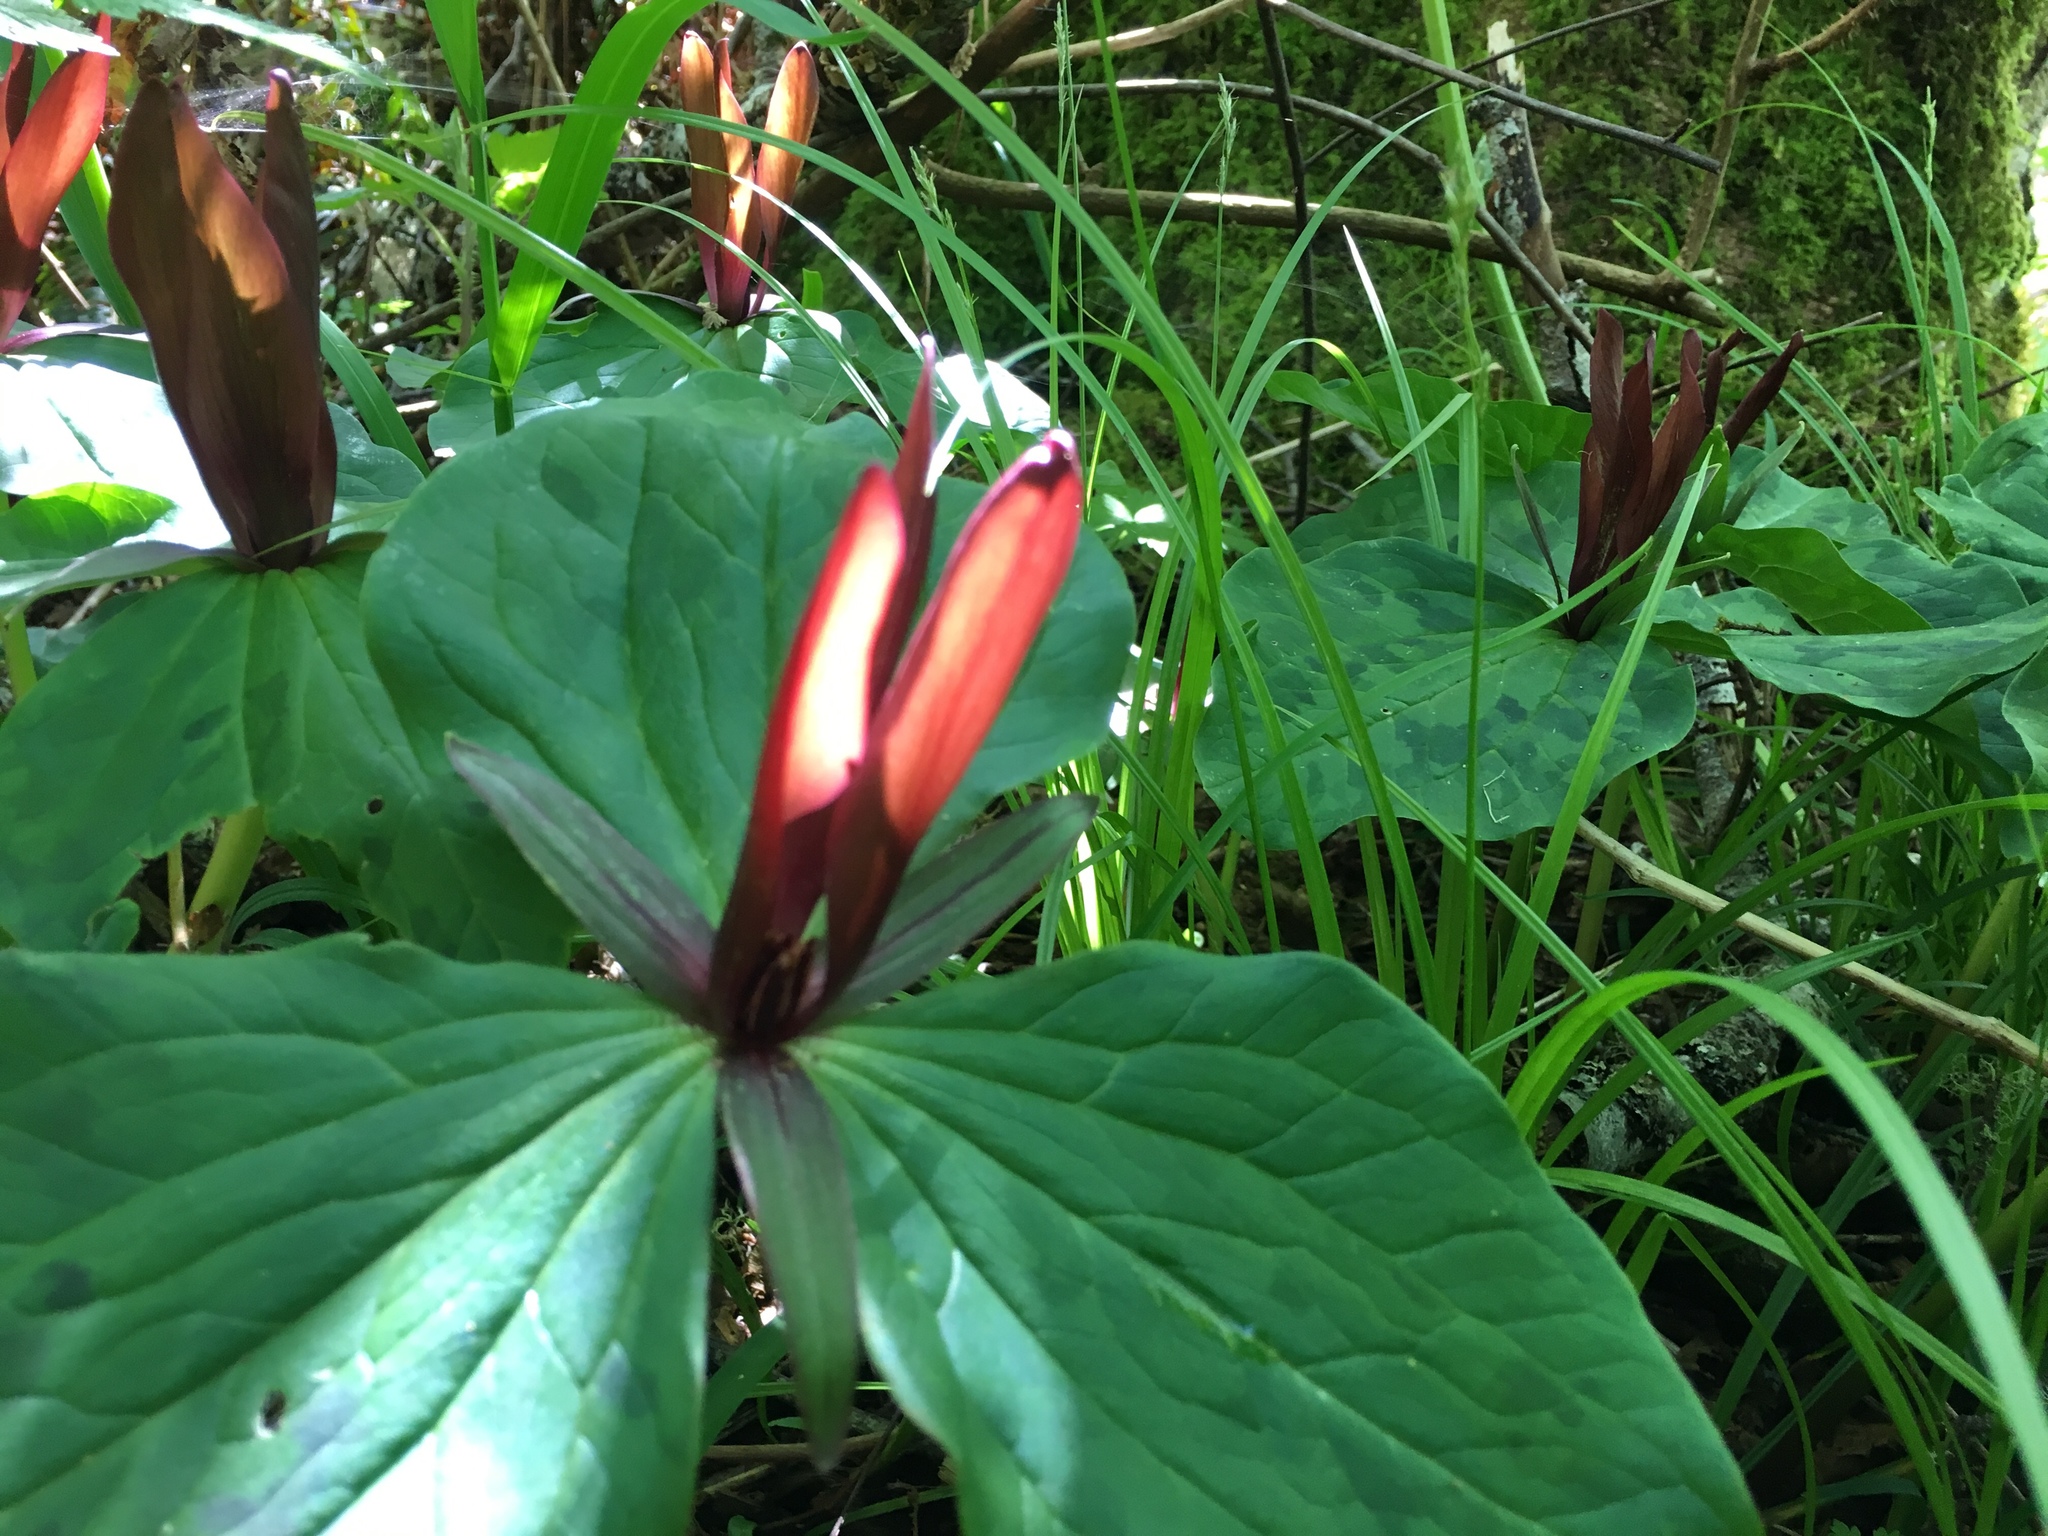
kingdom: Plantae
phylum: Tracheophyta
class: Liliopsida
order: Liliales
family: Melanthiaceae
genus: Trillium
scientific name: Trillium kurabayashii
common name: Giant purple trillium
